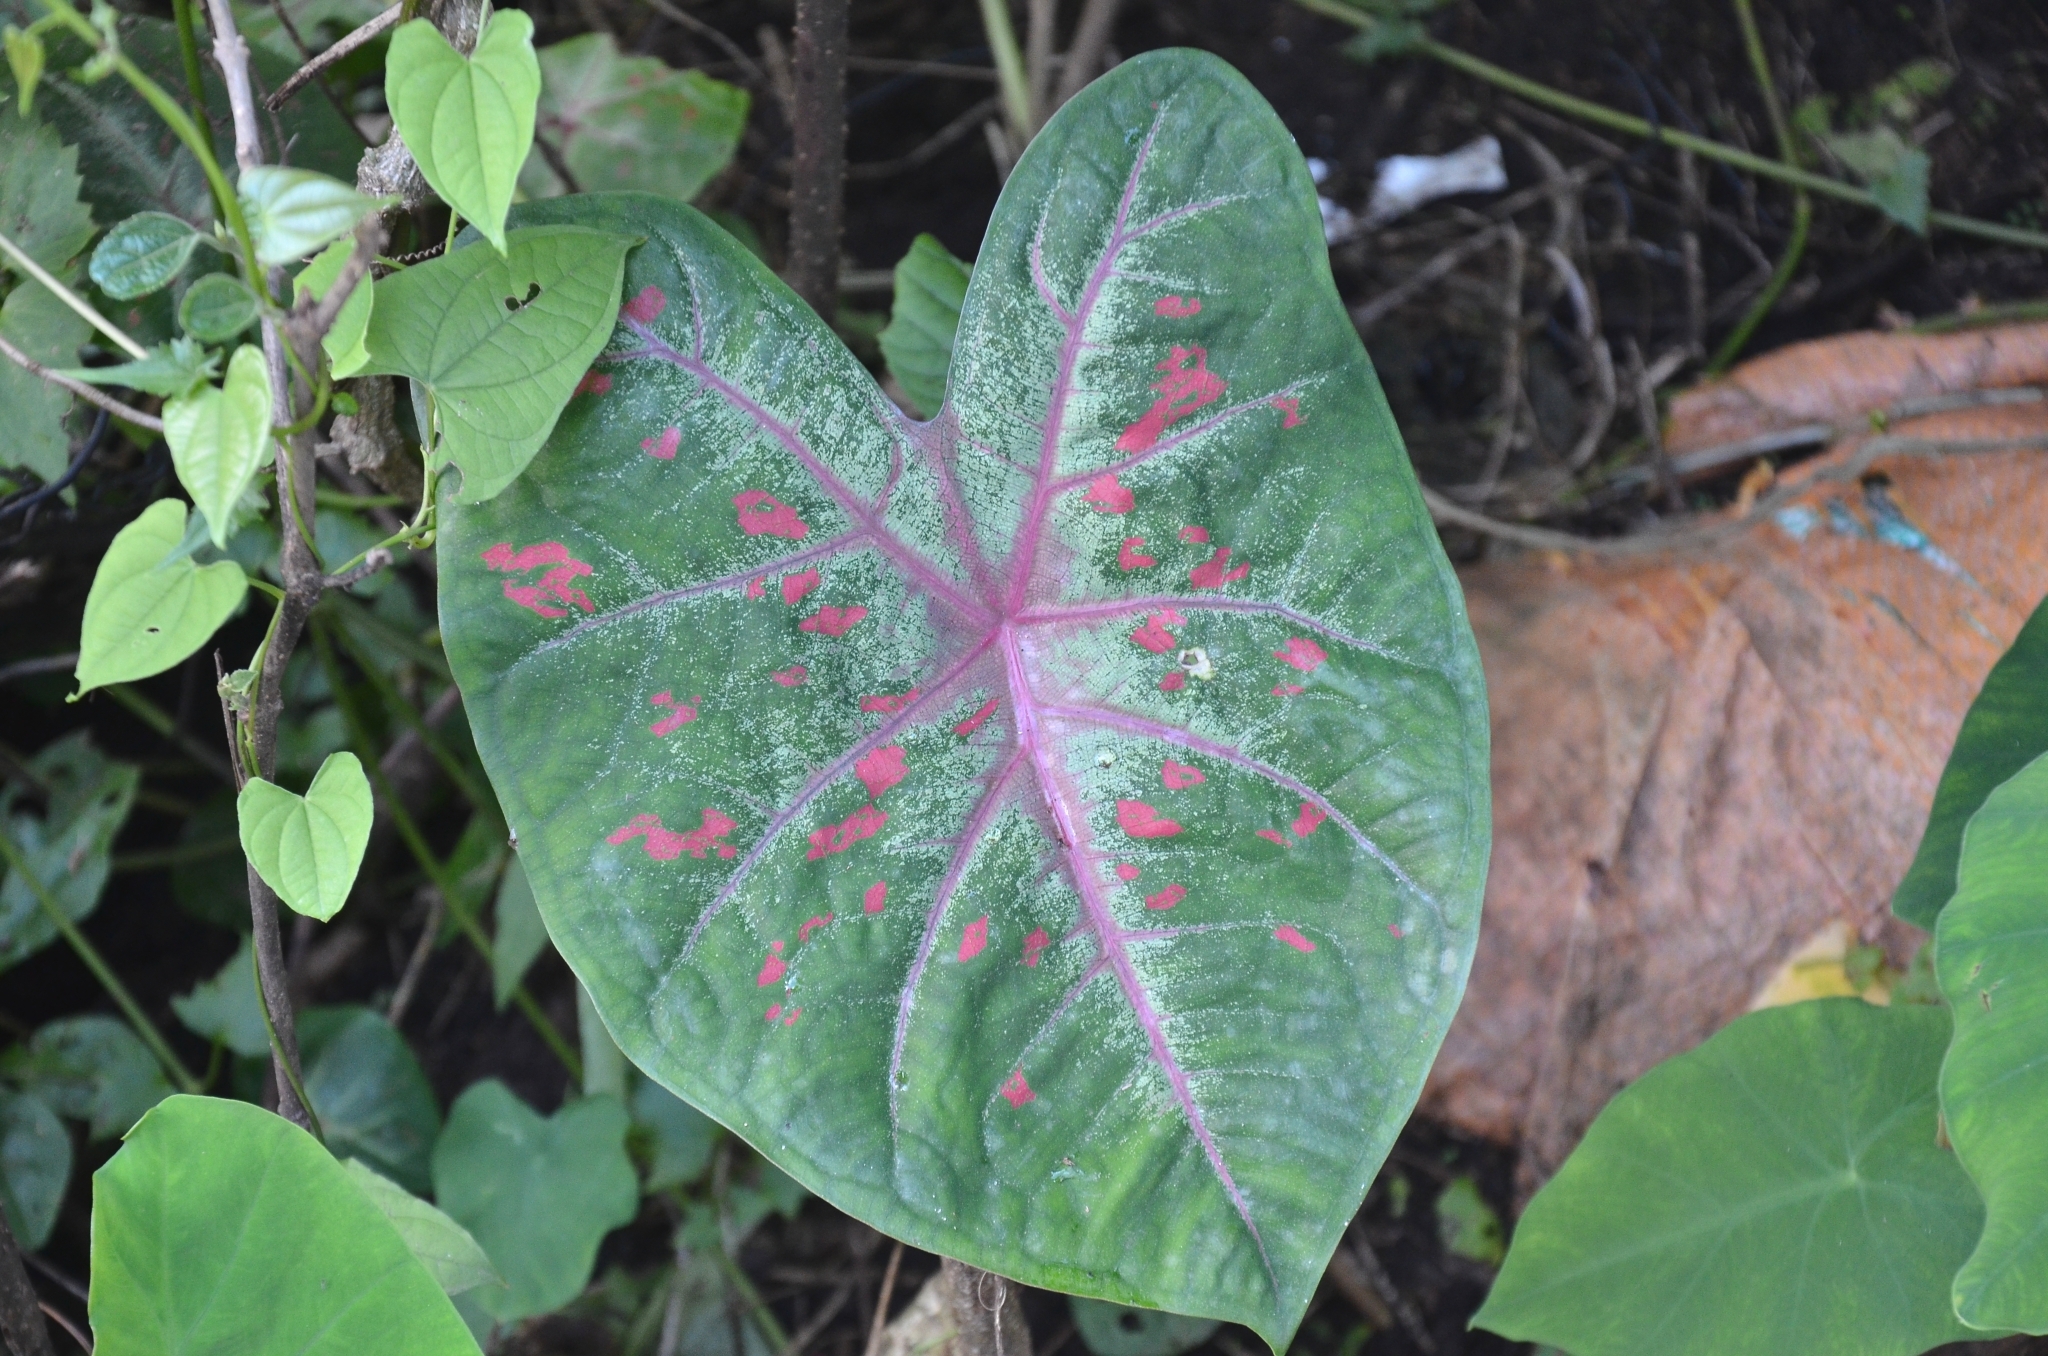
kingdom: Plantae
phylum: Tracheophyta
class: Liliopsida
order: Alismatales
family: Araceae
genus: Caladium
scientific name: Caladium bicolor
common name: Artist's pallet
